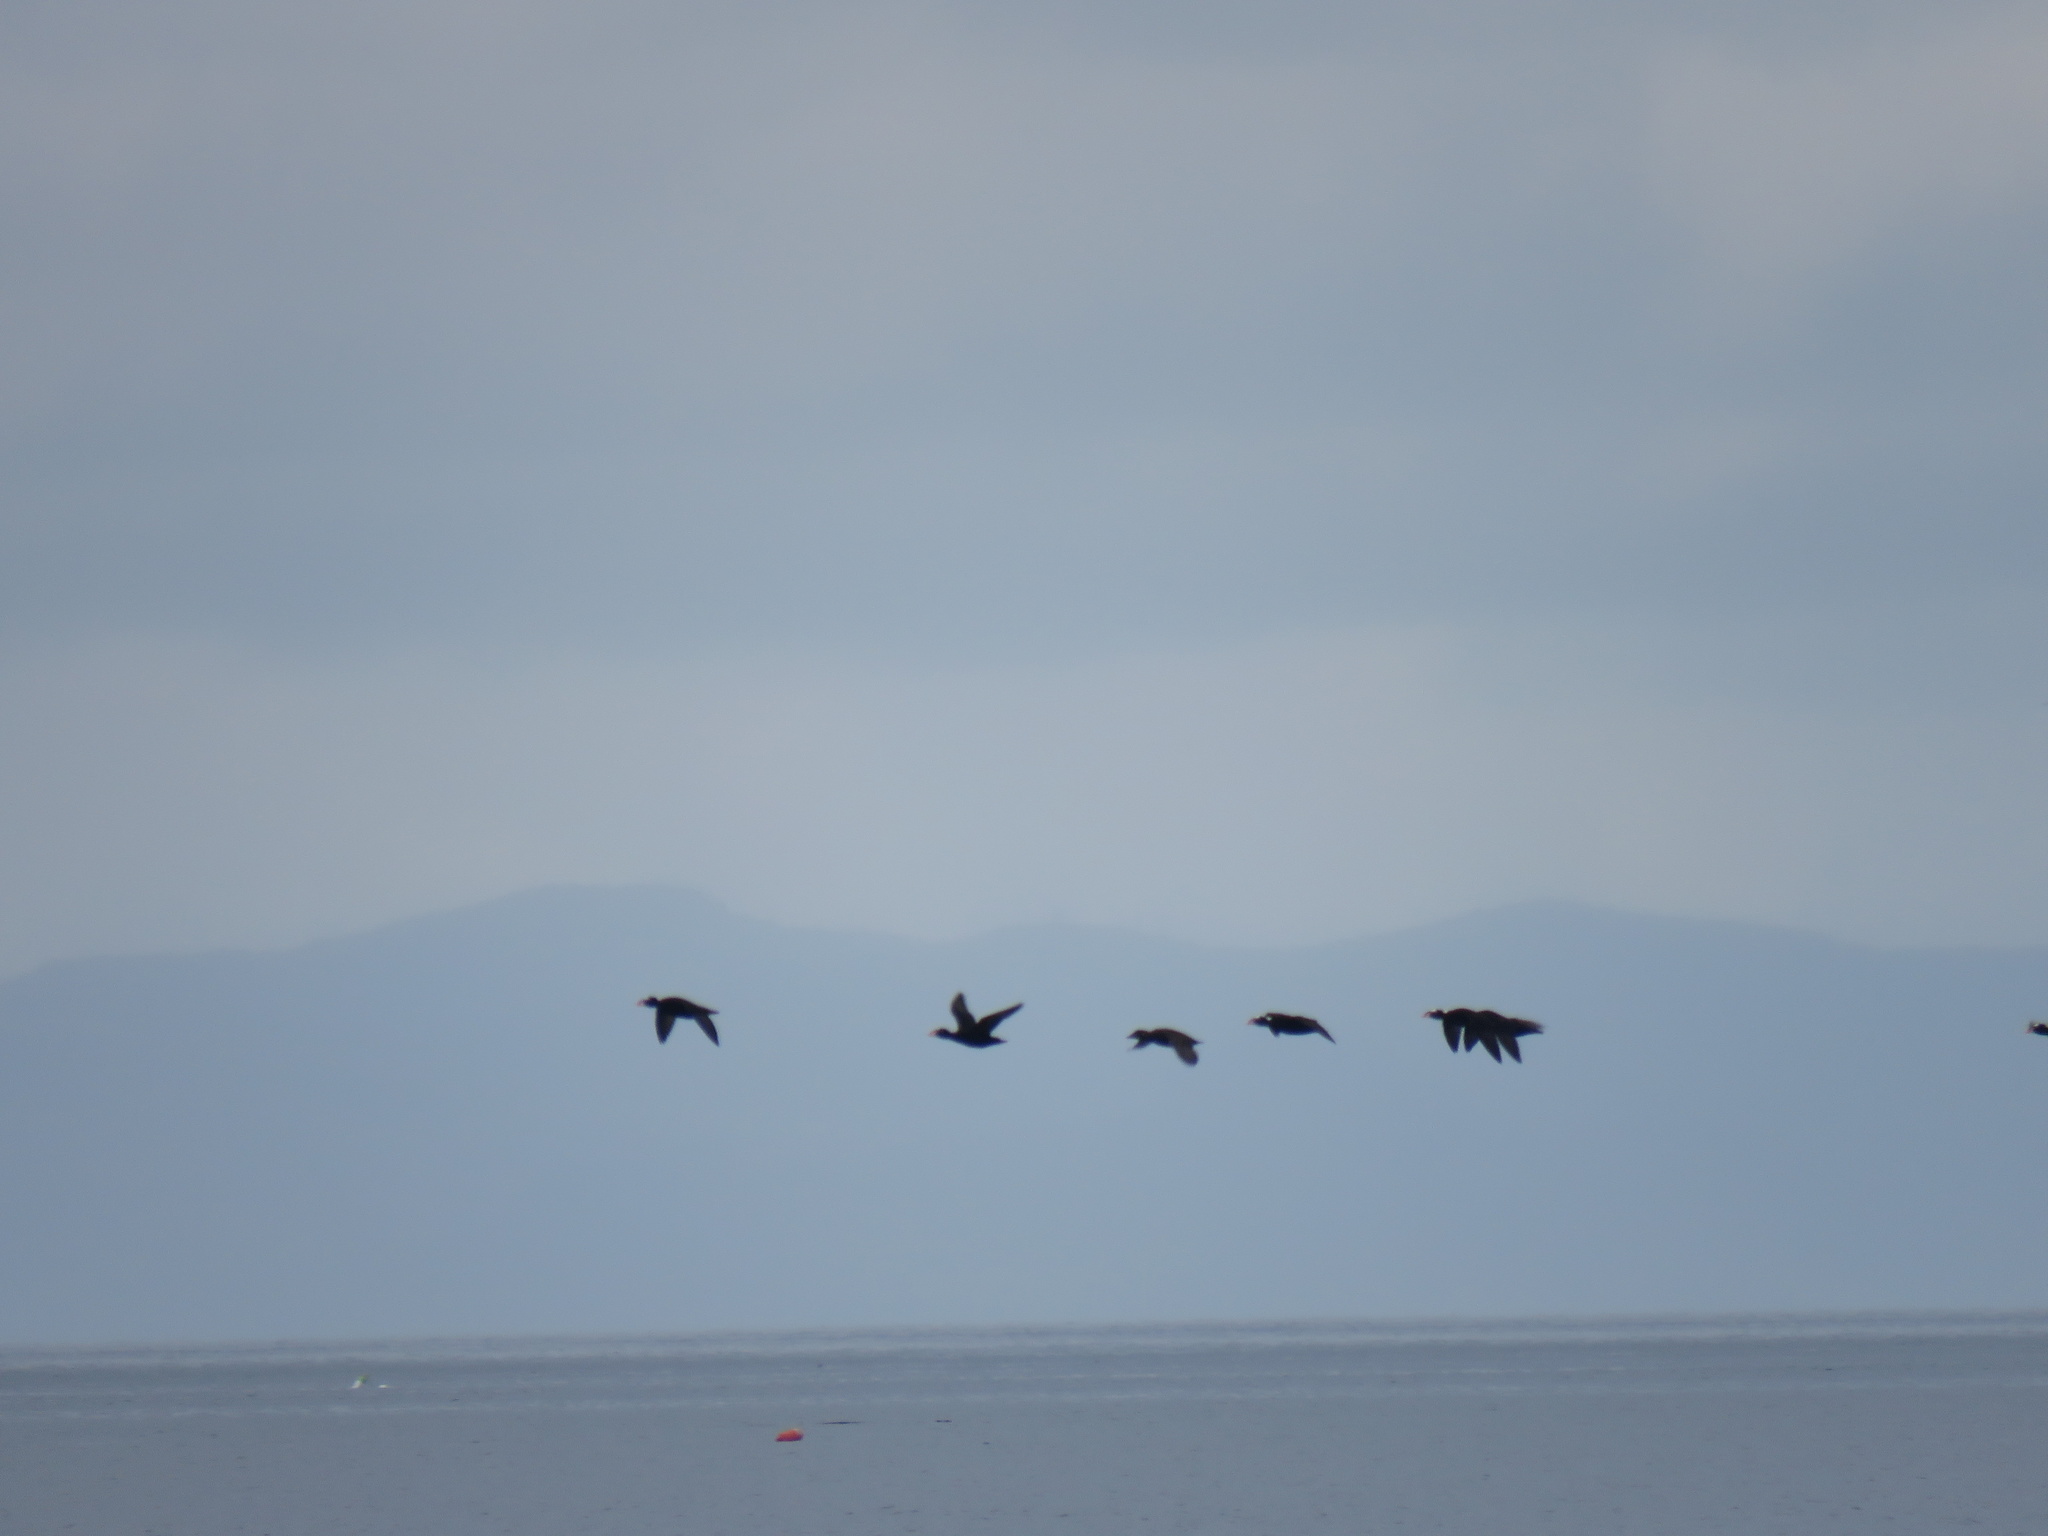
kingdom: Animalia
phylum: Chordata
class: Aves
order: Anseriformes
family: Anatidae
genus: Melanitta
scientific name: Melanitta perspicillata
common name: Surf scoter
